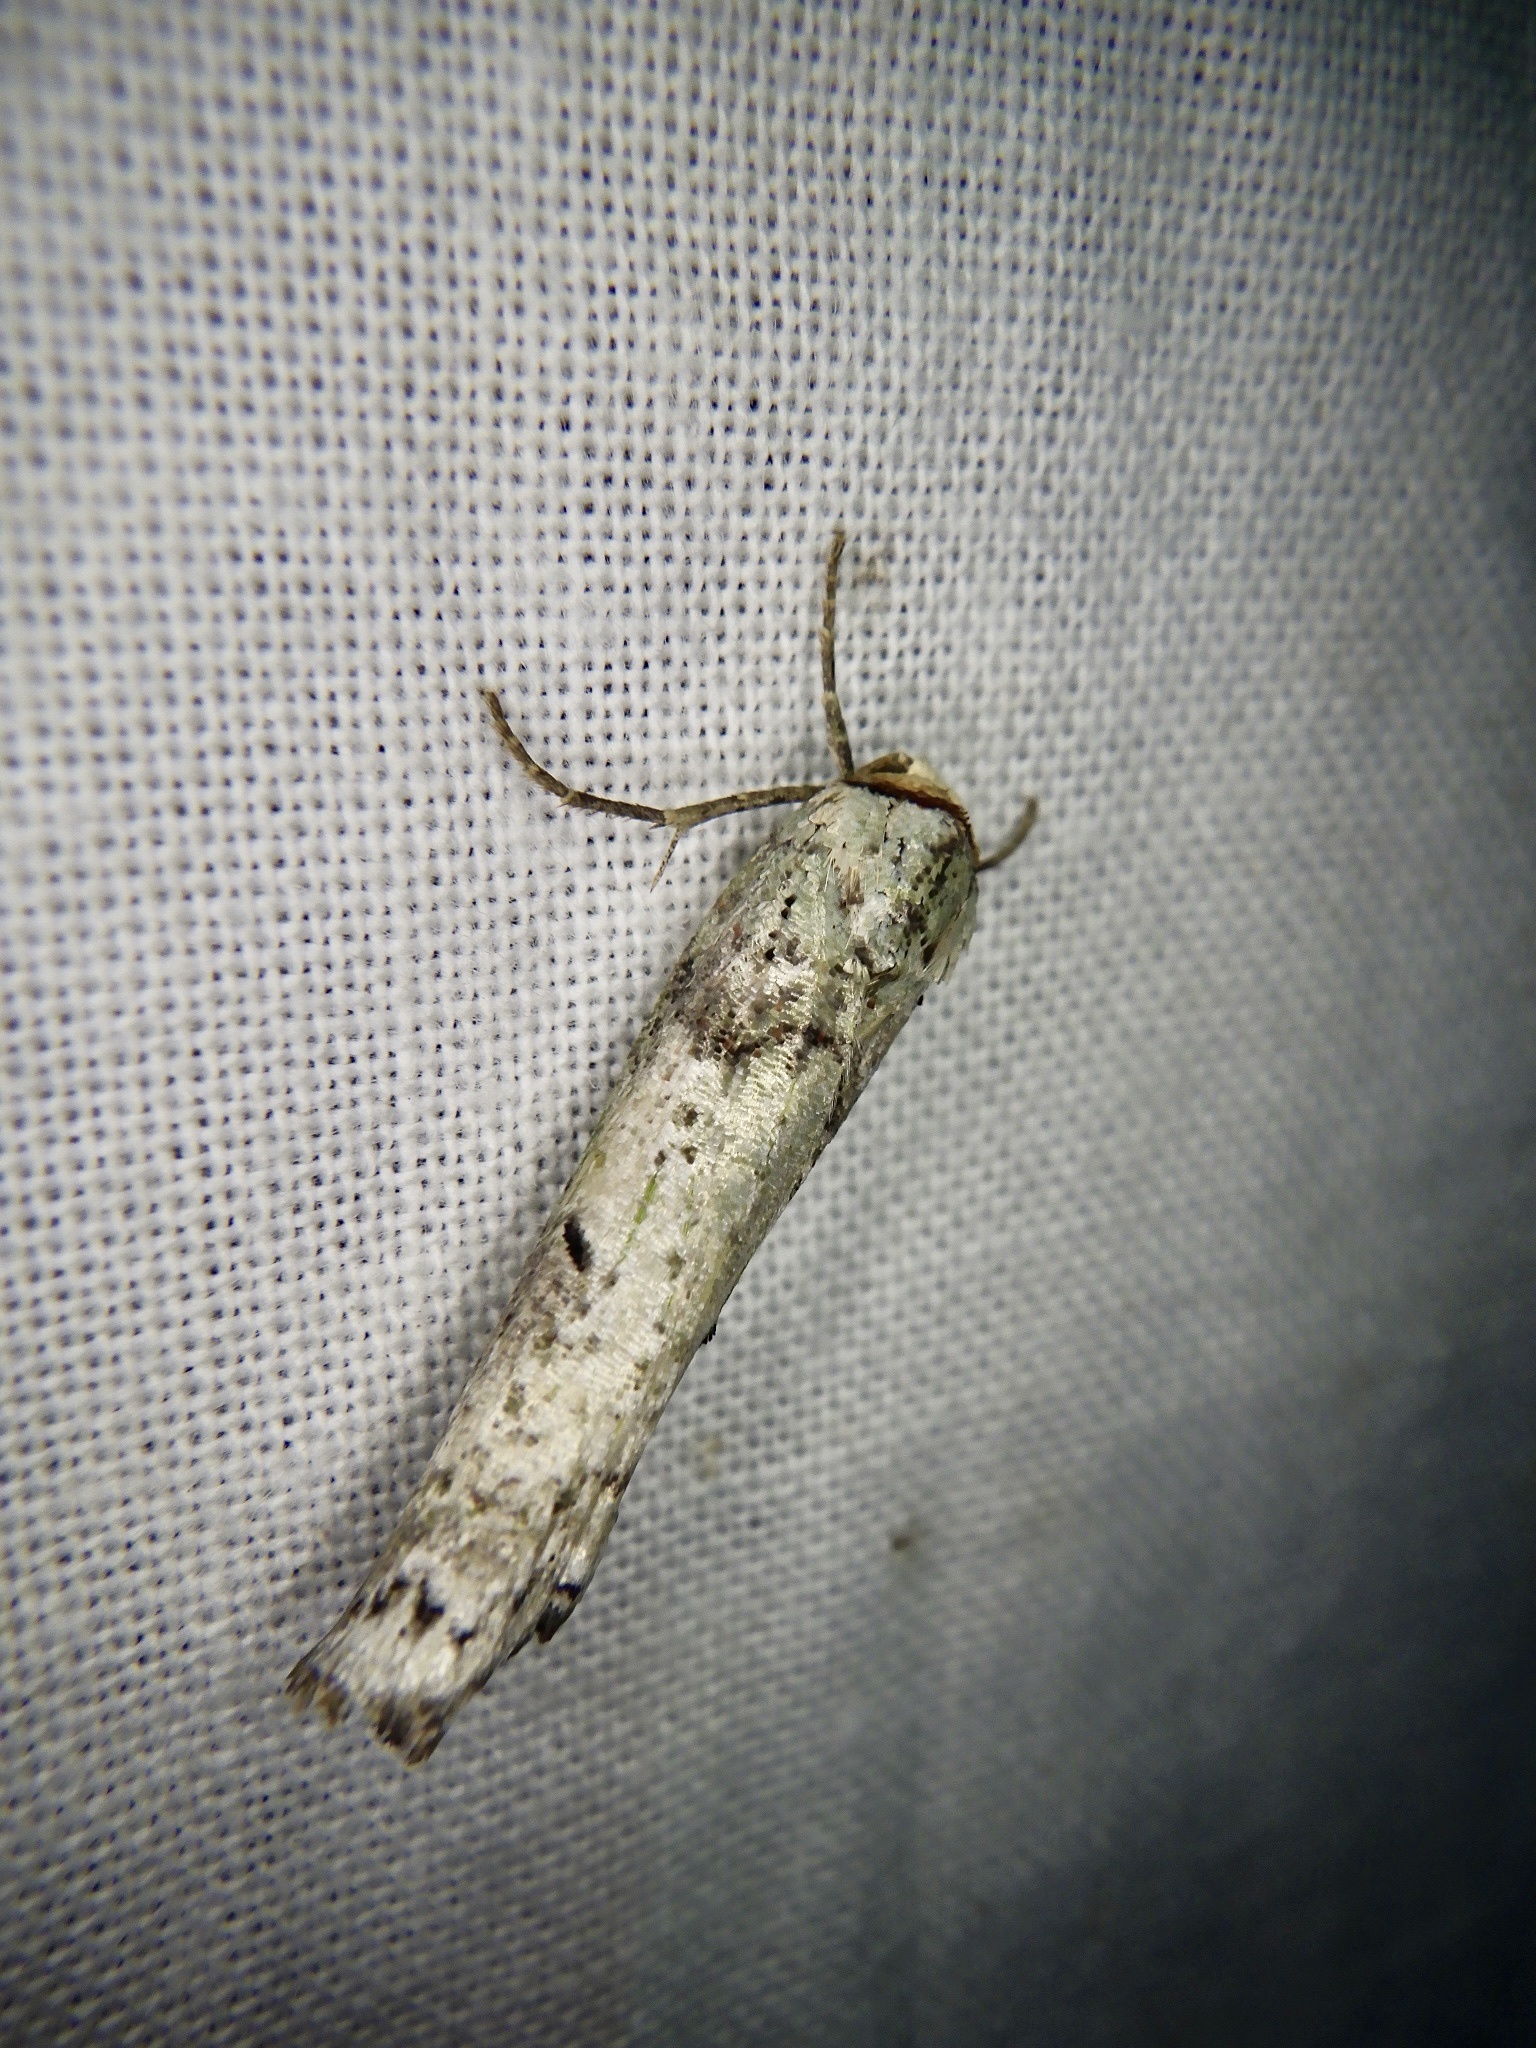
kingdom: Animalia
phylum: Arthropoda
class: Insecta
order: Lepidoptera
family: Nolidae
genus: Kerala
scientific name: Kerala decipiens
